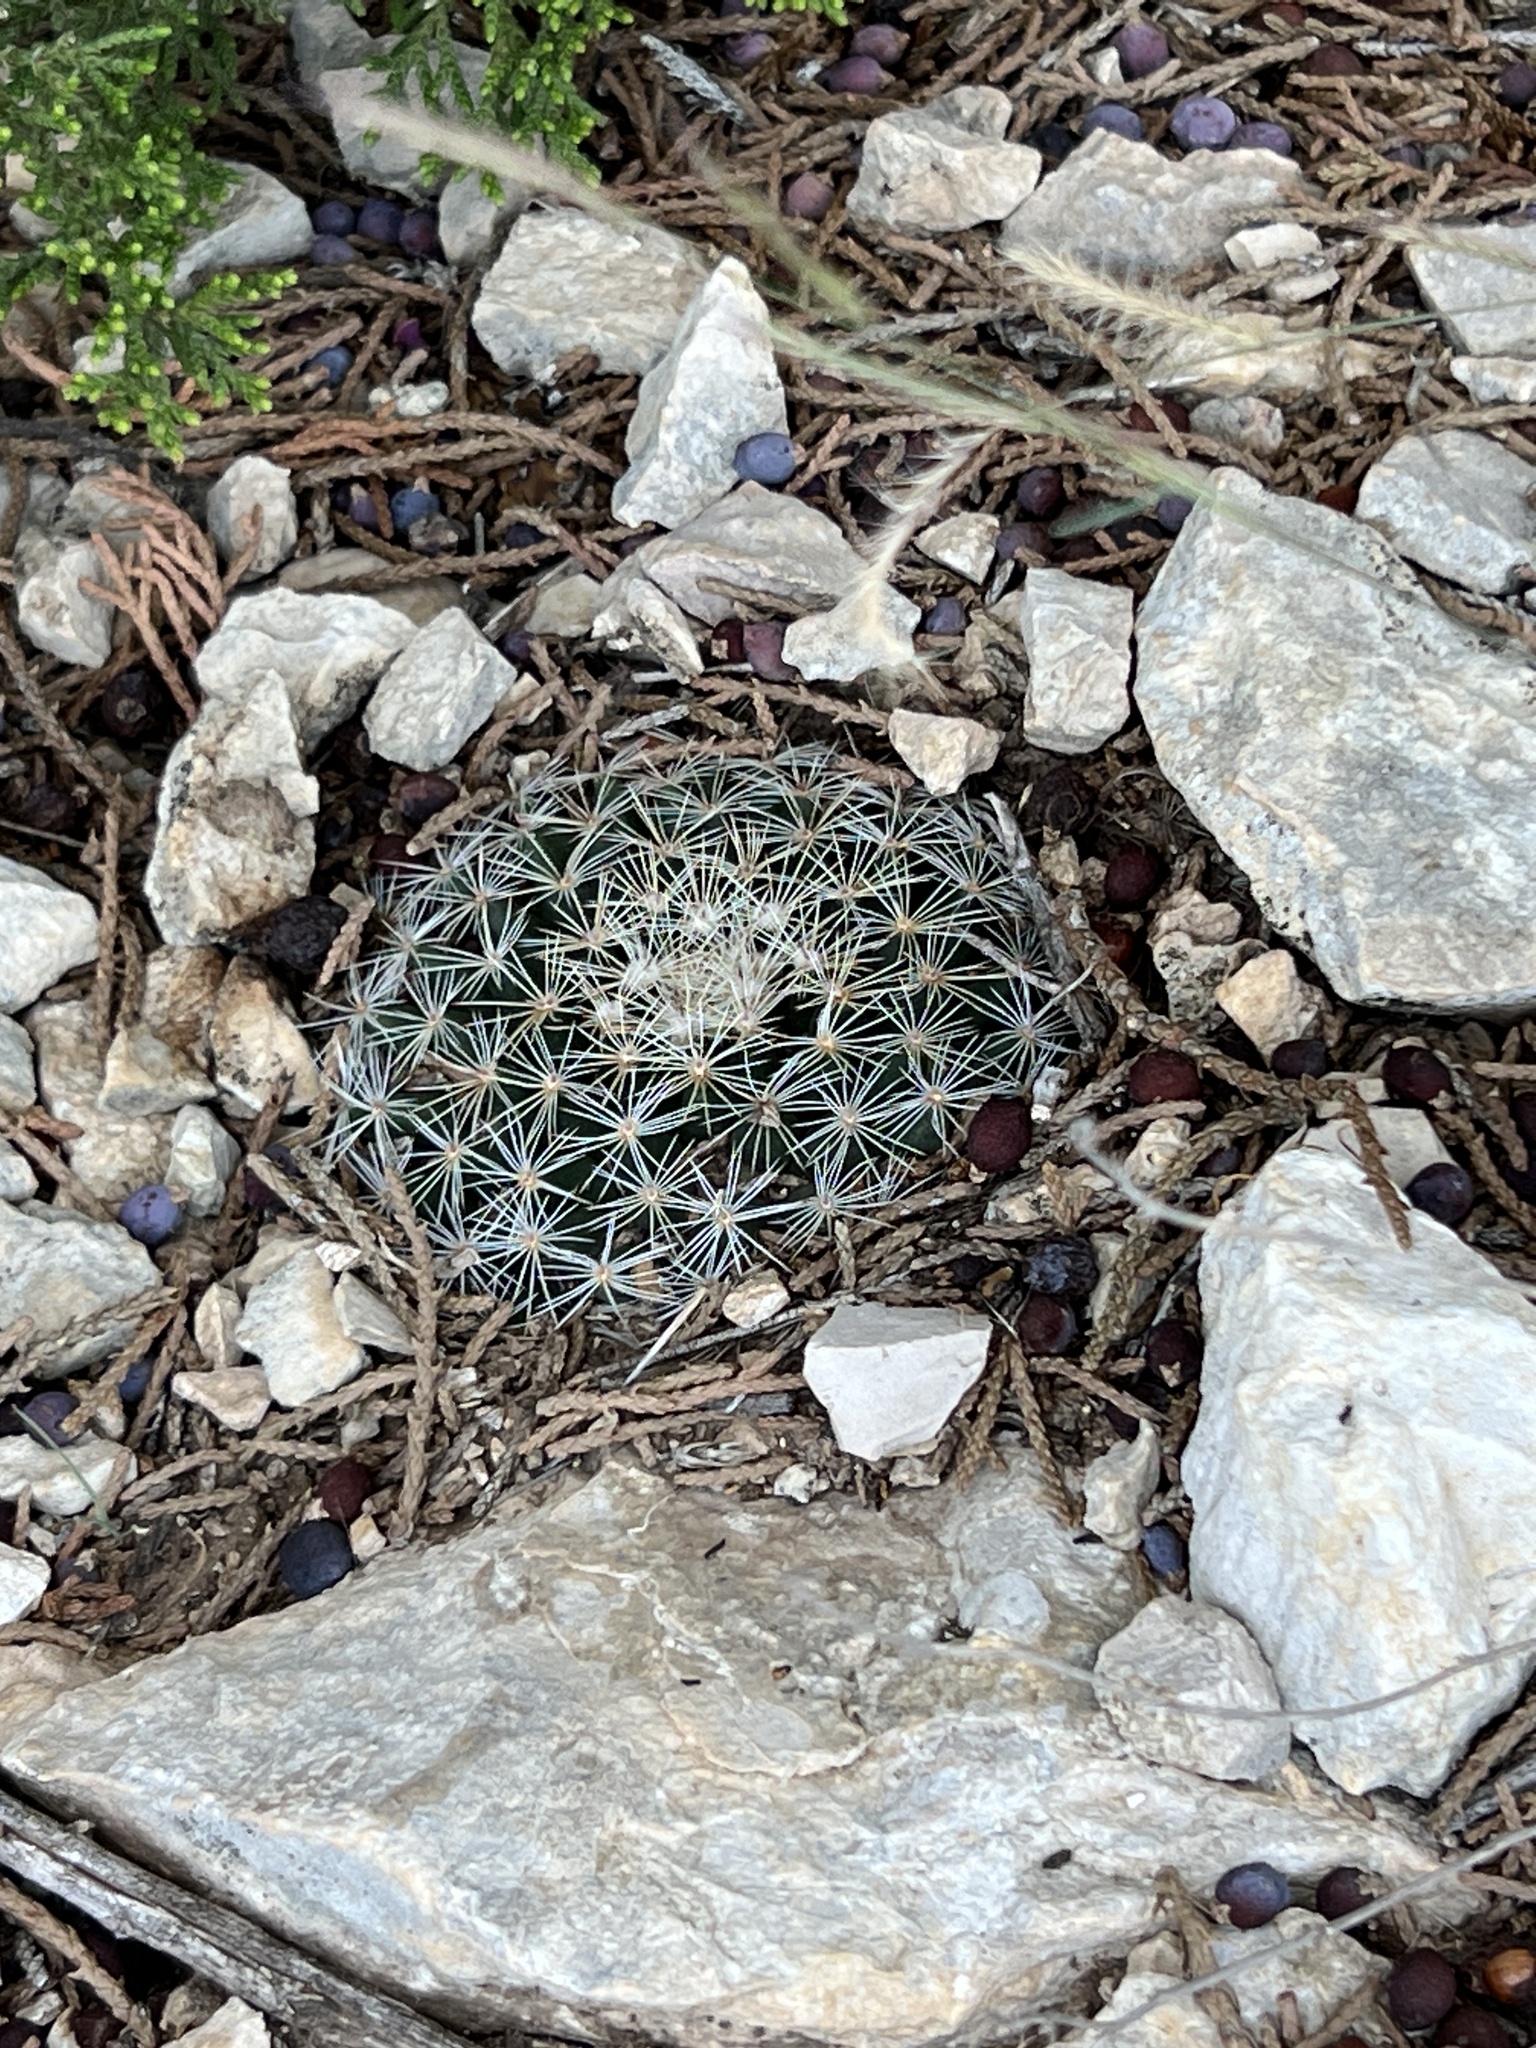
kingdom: Plantae
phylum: Tracheophyta
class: Magnoliopsida
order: Caryophyllales
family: Cactaceae
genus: Mammillaria
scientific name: Mammillaria heyderi
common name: Little nipple cactus
